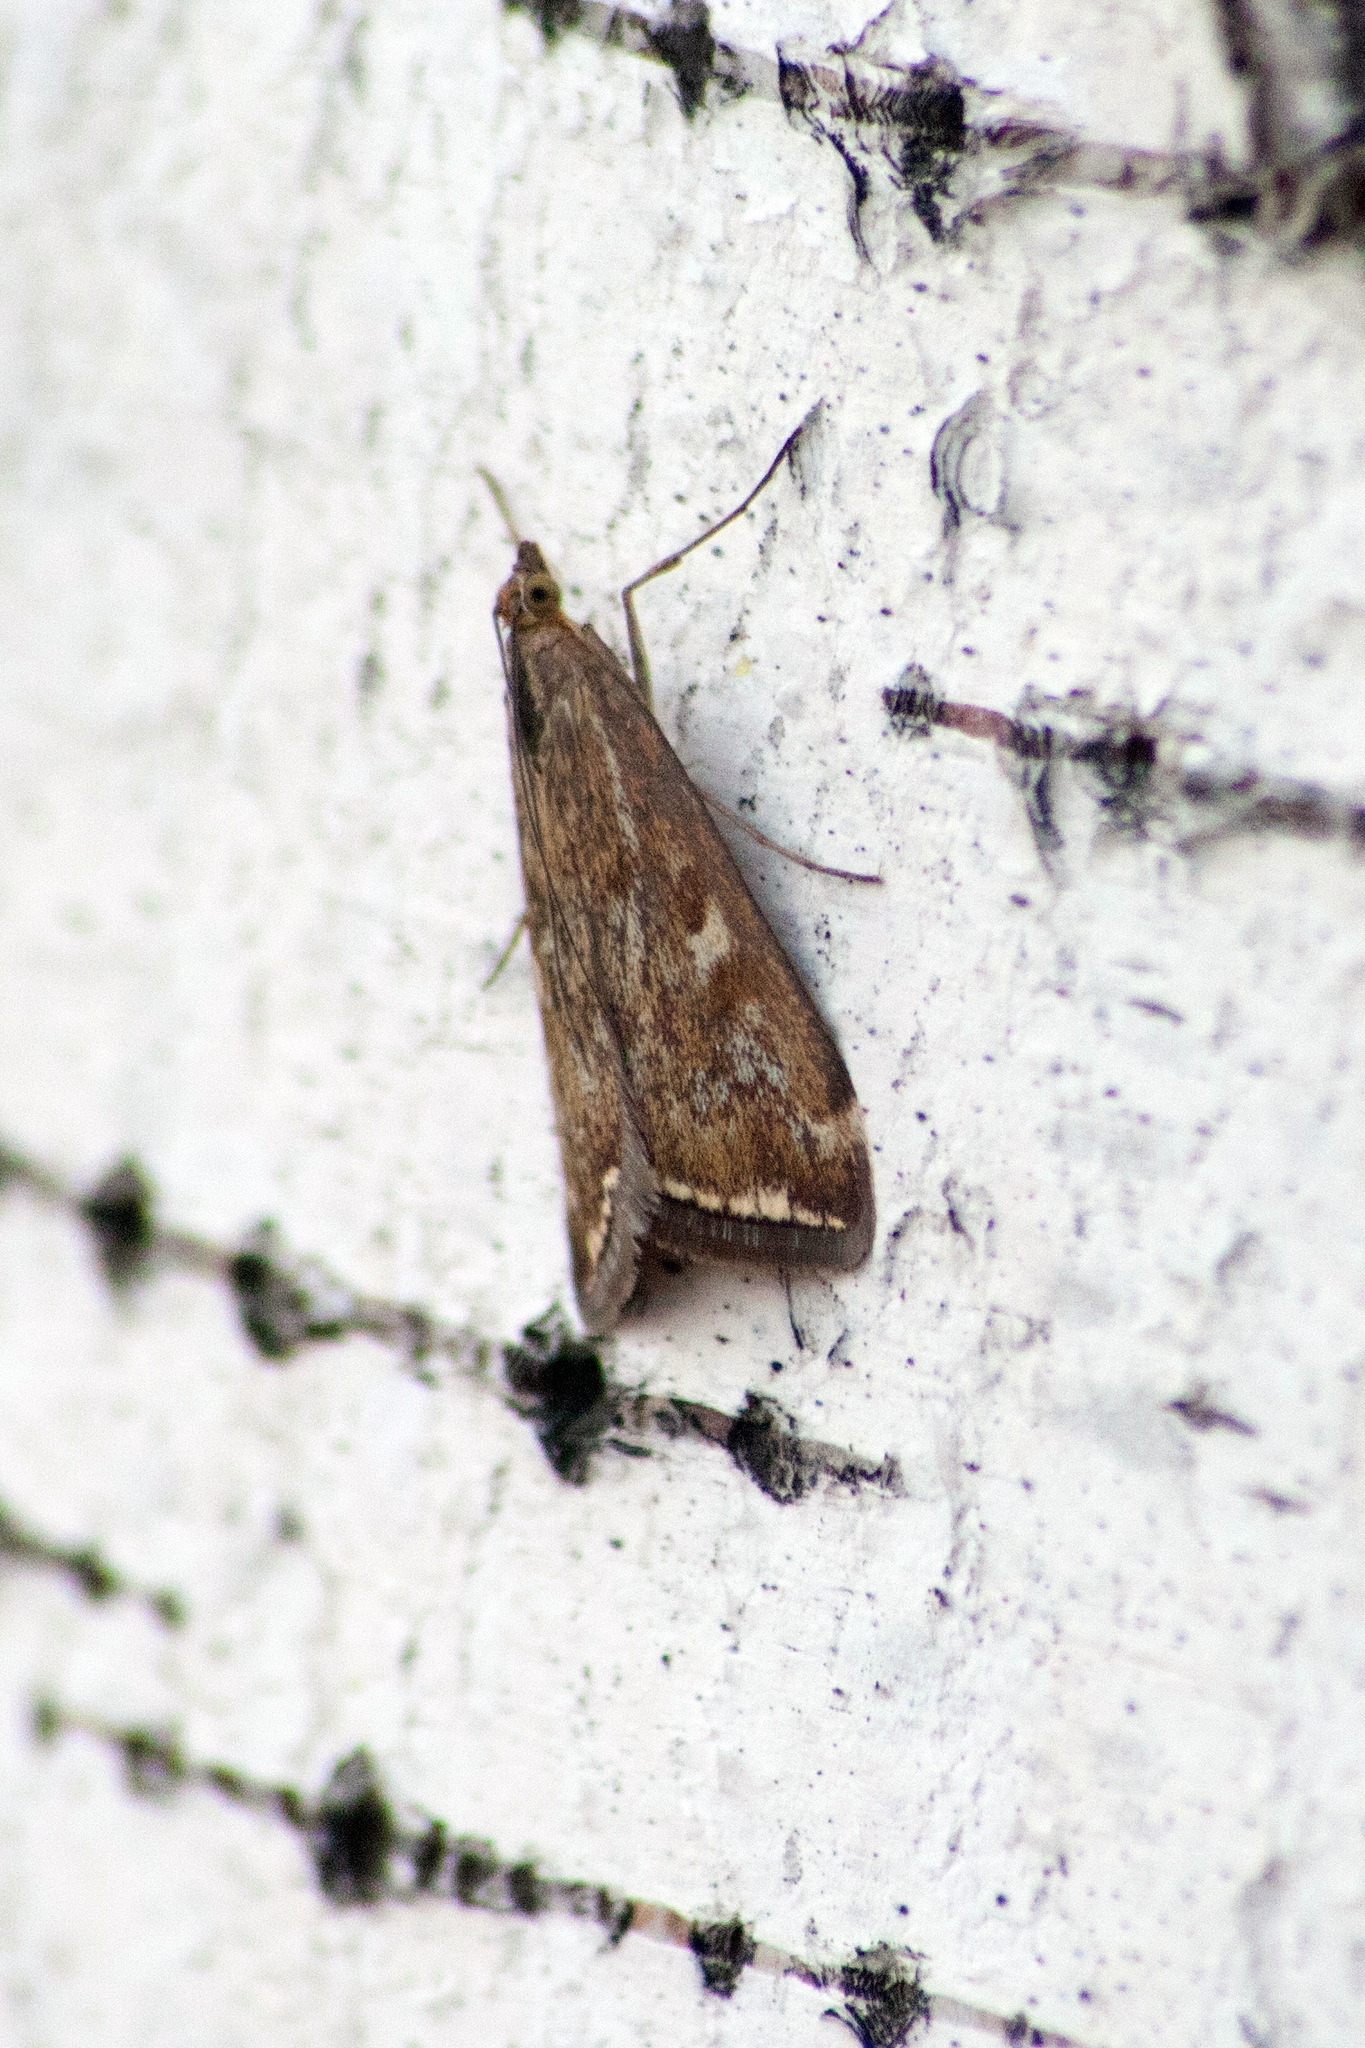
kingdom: Animalia
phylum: Arthropoda
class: Insecta
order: Lepidoptera
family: Crambidae
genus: Loxostege
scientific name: Loxostege sticticalis
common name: Crambid moth
